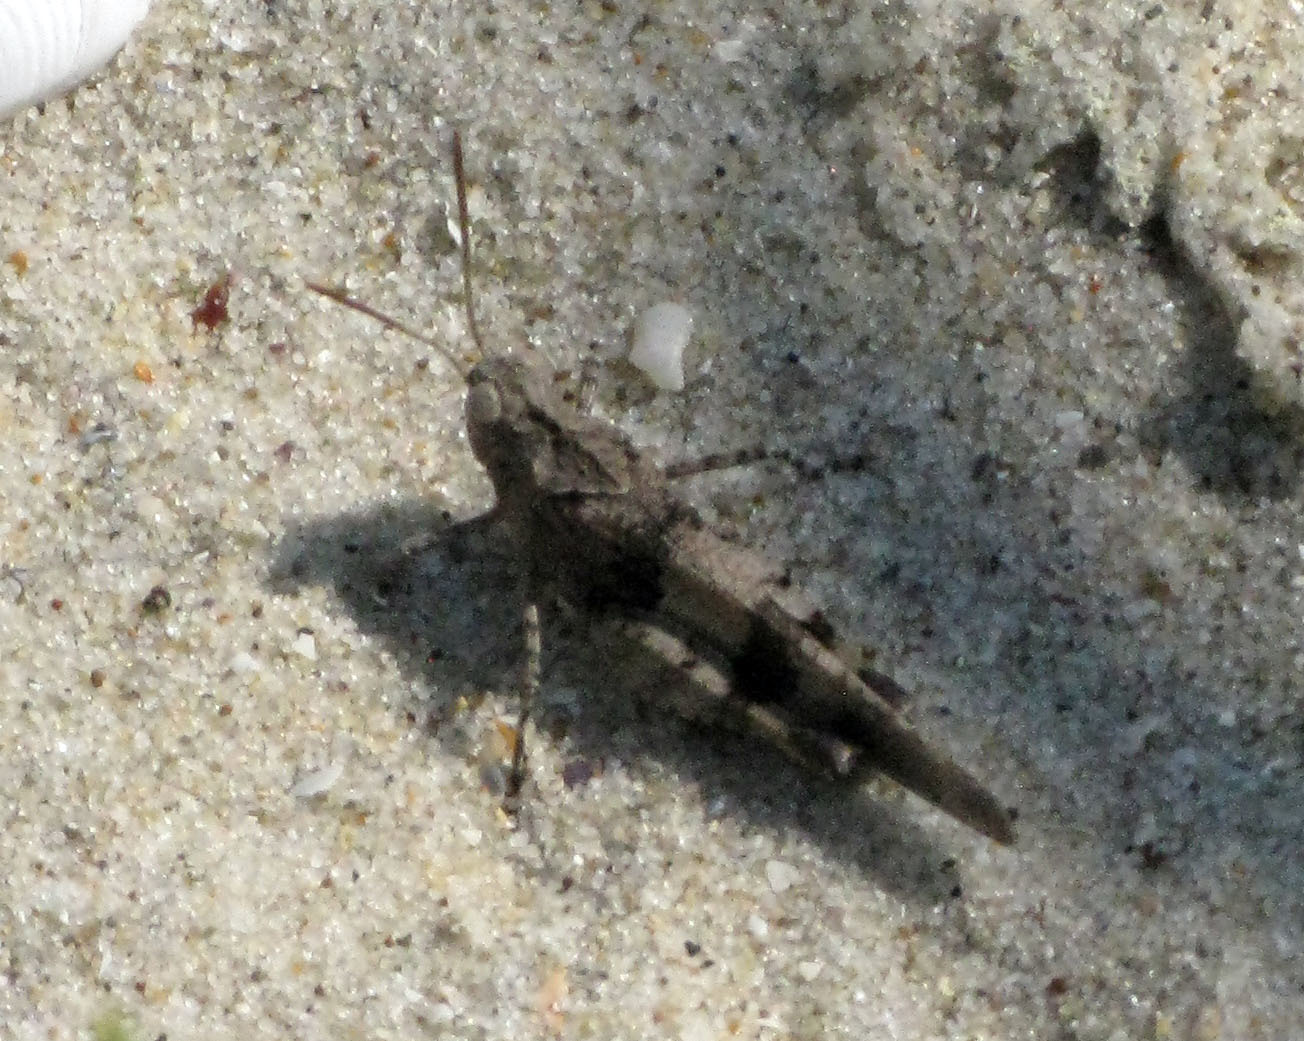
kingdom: Animalia
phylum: Arthropoda
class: Insecta
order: Orthoptera
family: Acrididae
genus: Oedipoda
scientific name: Oedipoda caerulescens
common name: Blue-winged grasshopper
